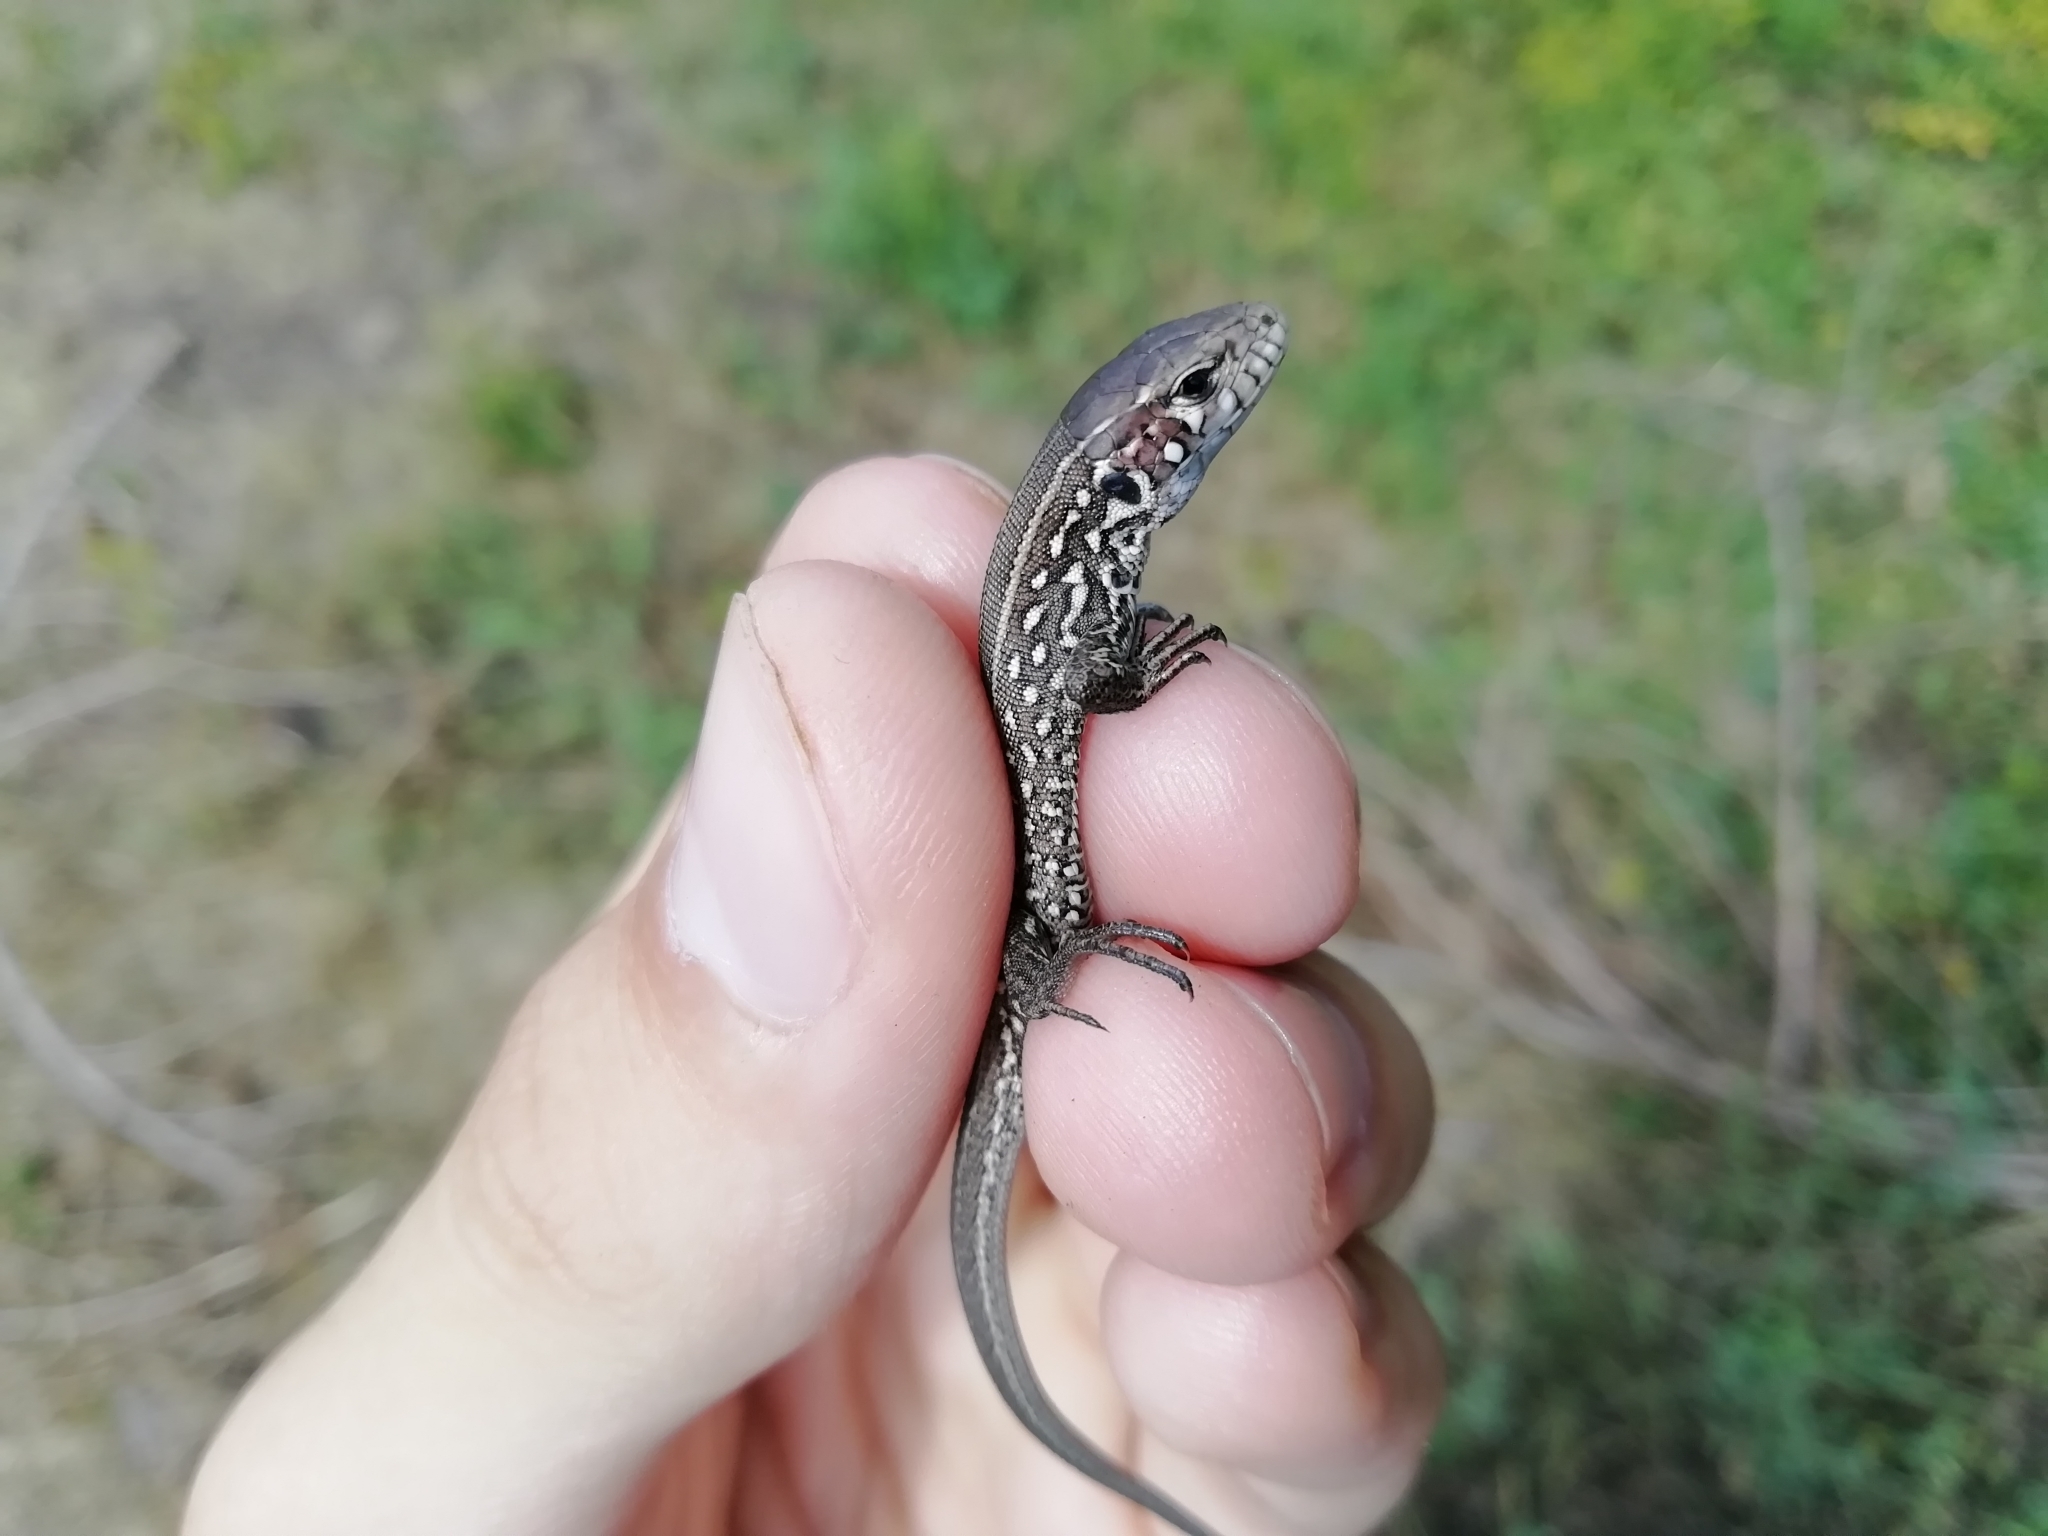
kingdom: Animalia
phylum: Chordata
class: Squamata
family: Lacertidae
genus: Lacerta
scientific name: Lacerta agilis
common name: Sand lizard
